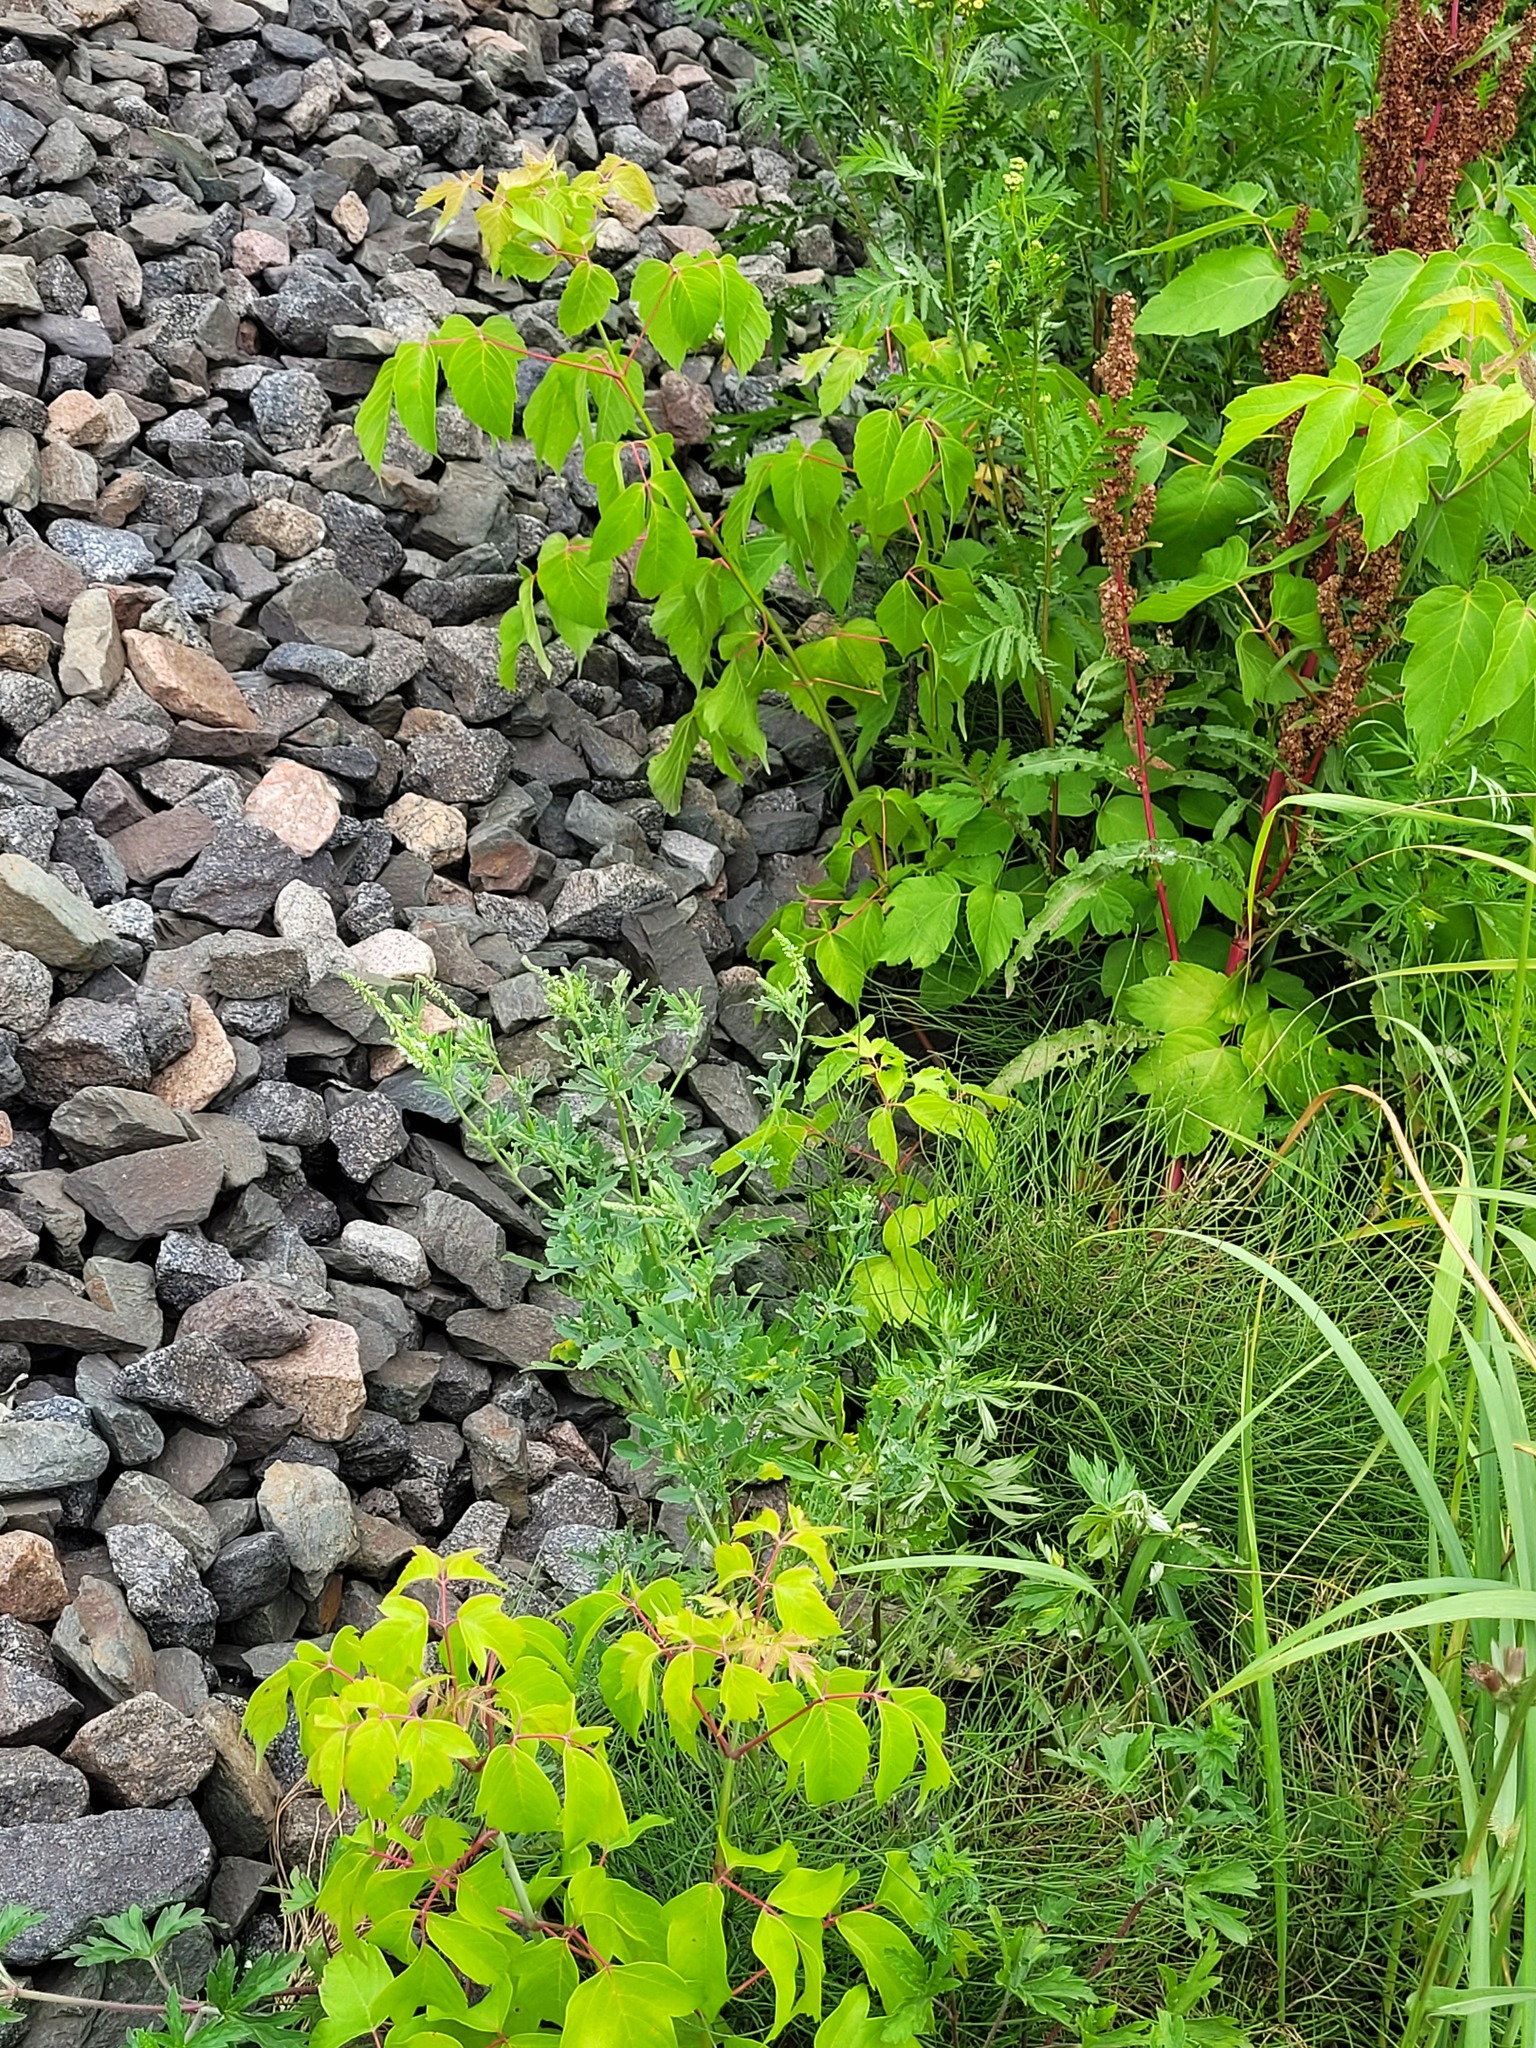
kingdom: Plantae
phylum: Tracheophyta
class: Magnoliopsida
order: Fabales
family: Fabaceae
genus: Melilotus
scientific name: Melilotus albus
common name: White melilot
